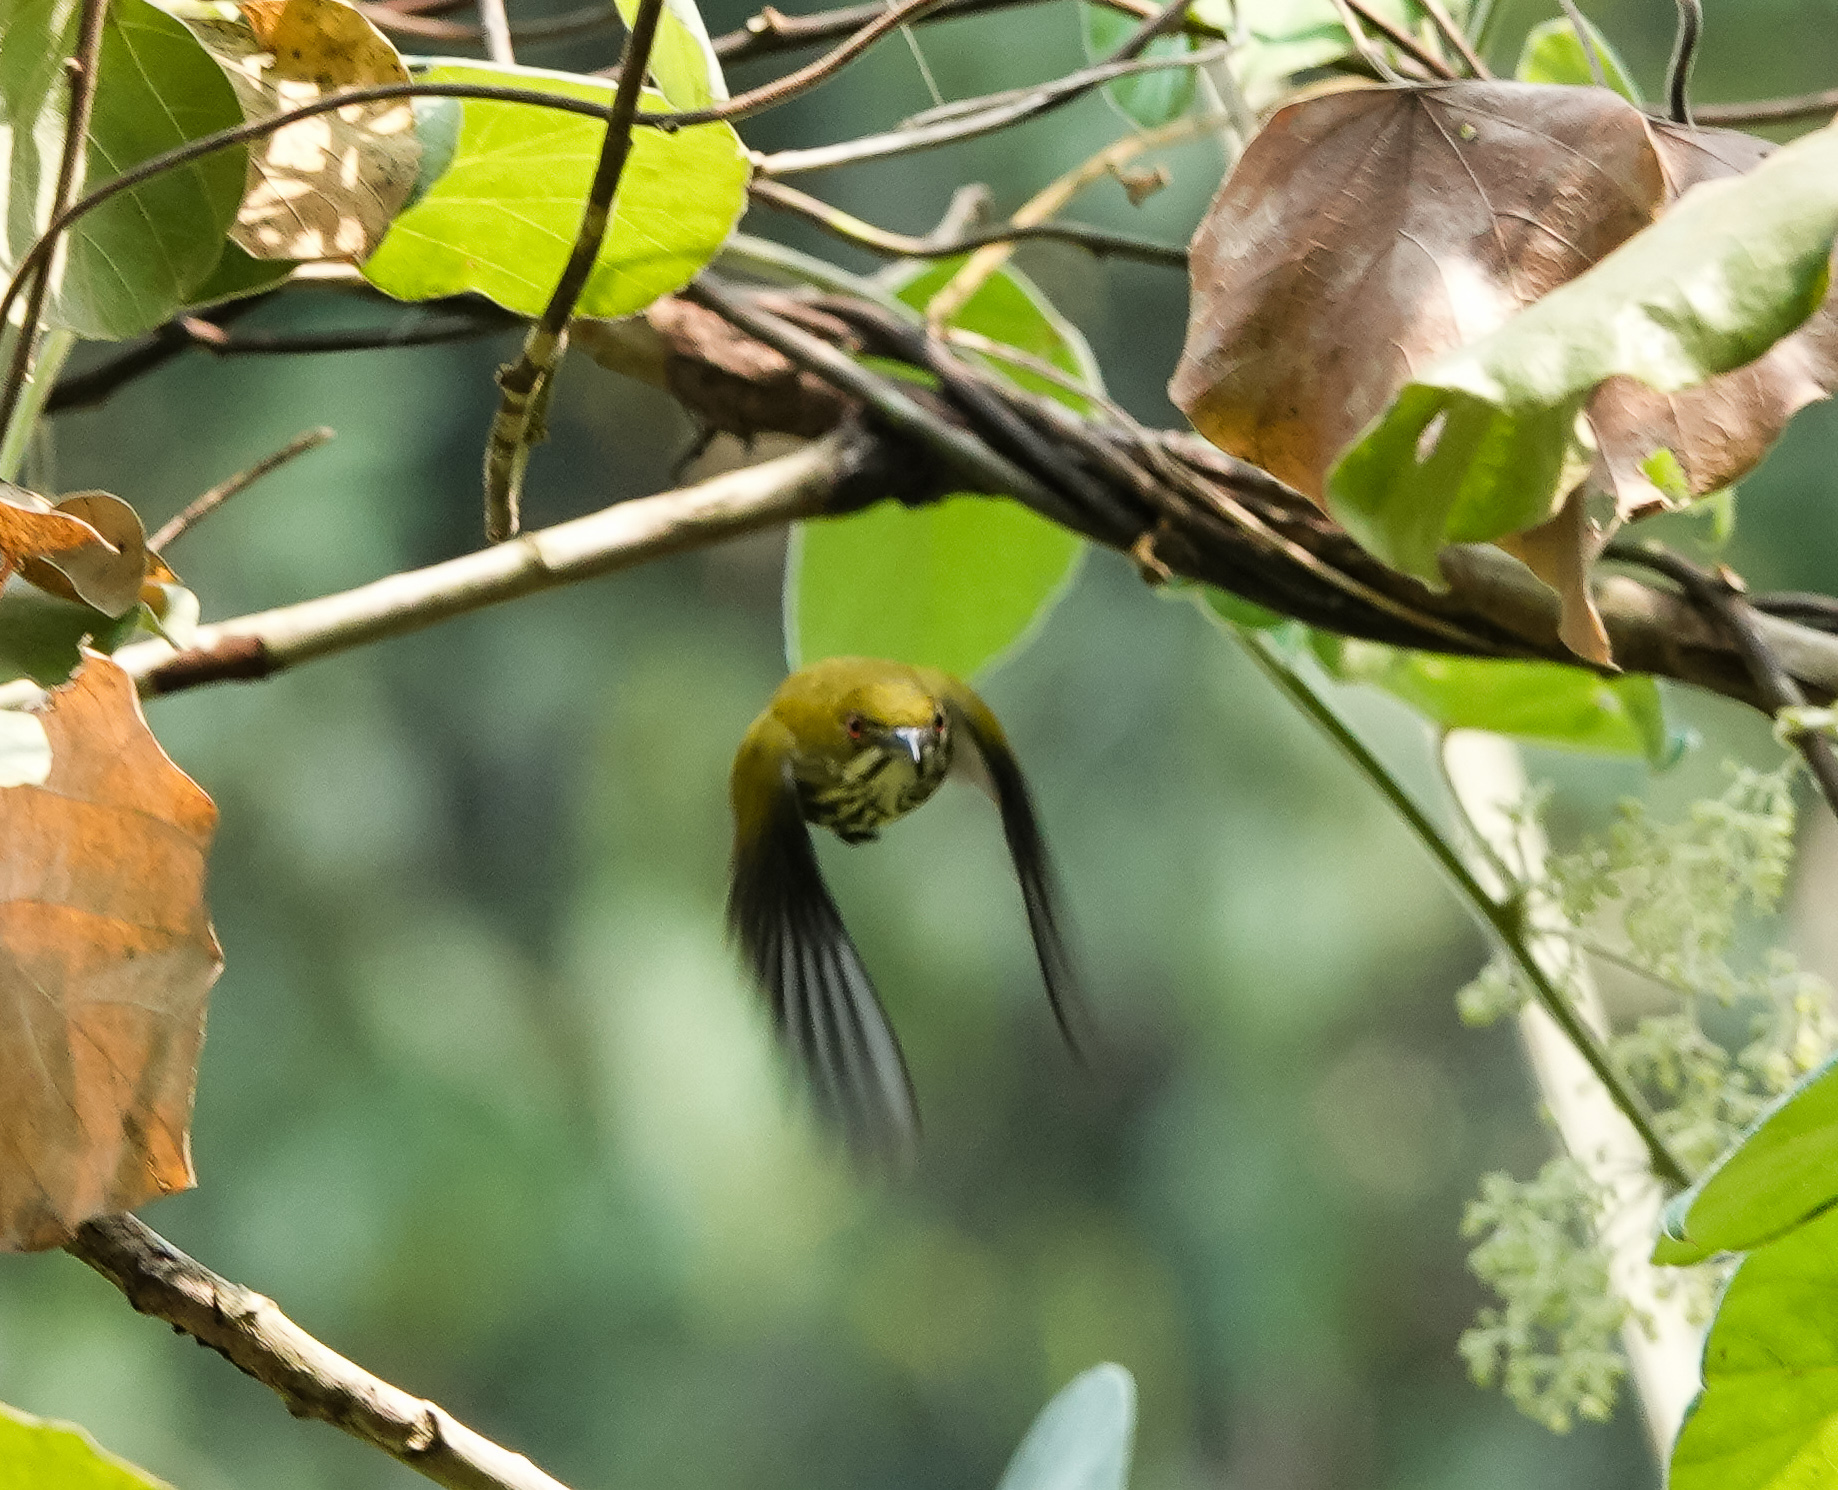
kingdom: Animalia
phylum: Chordata
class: Aves
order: Passeriformes
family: Dicaeidae
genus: Dicaeum
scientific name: Dicaeum chrysorrheum
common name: Yellow-vented flowerpecker
